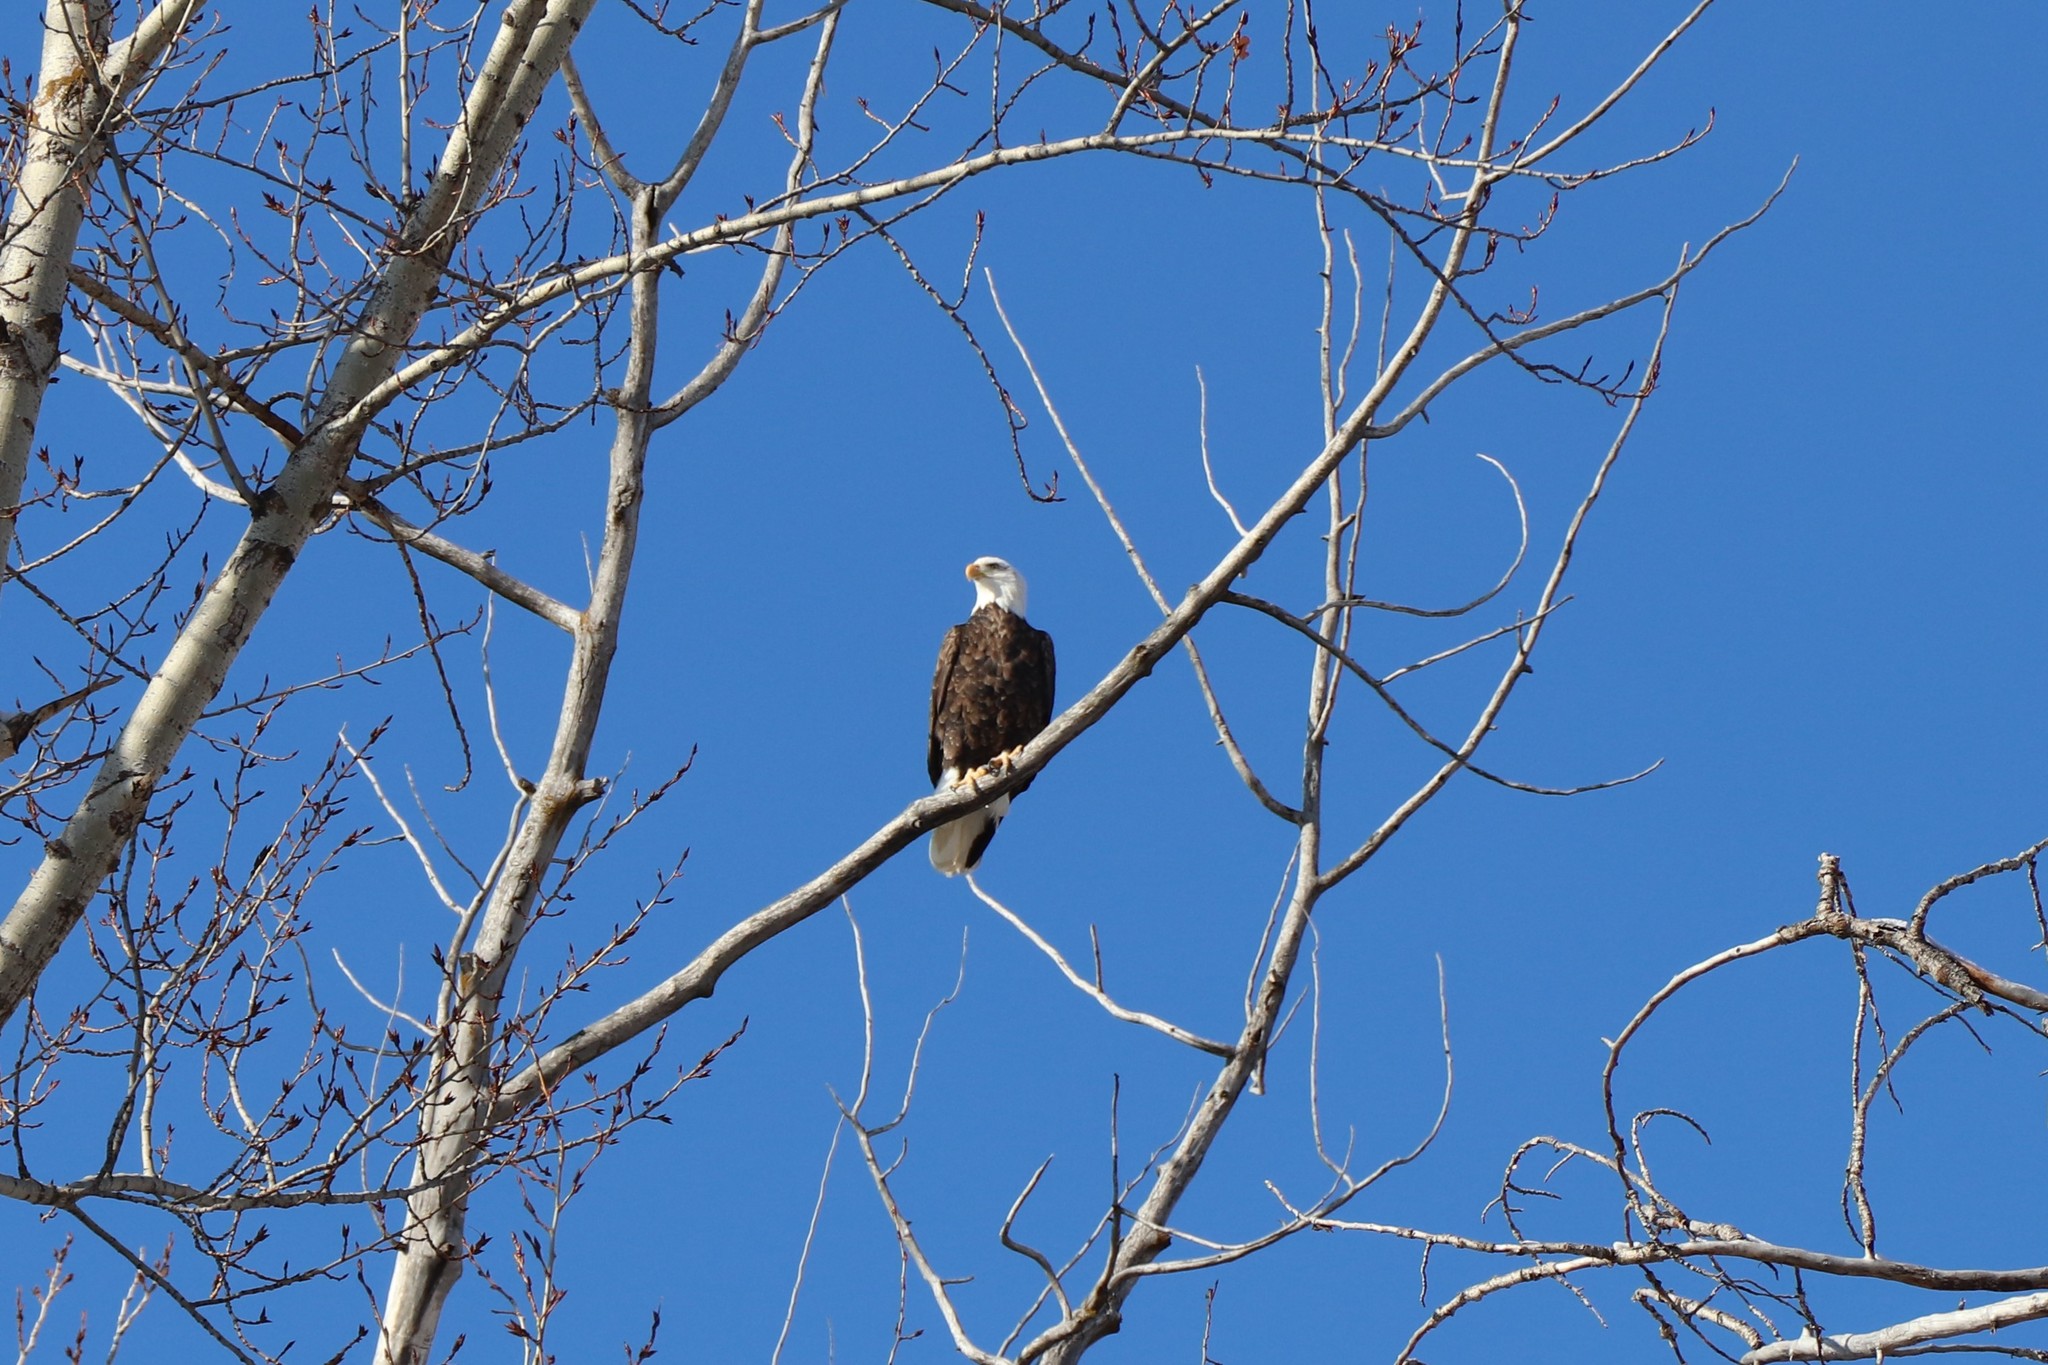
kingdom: Animalia
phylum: Chordata
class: Aves
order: Accipitriformes
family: Accipitridae
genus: Haliaeetus
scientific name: Haliaeetus leucocephalus
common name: Bald eagle
